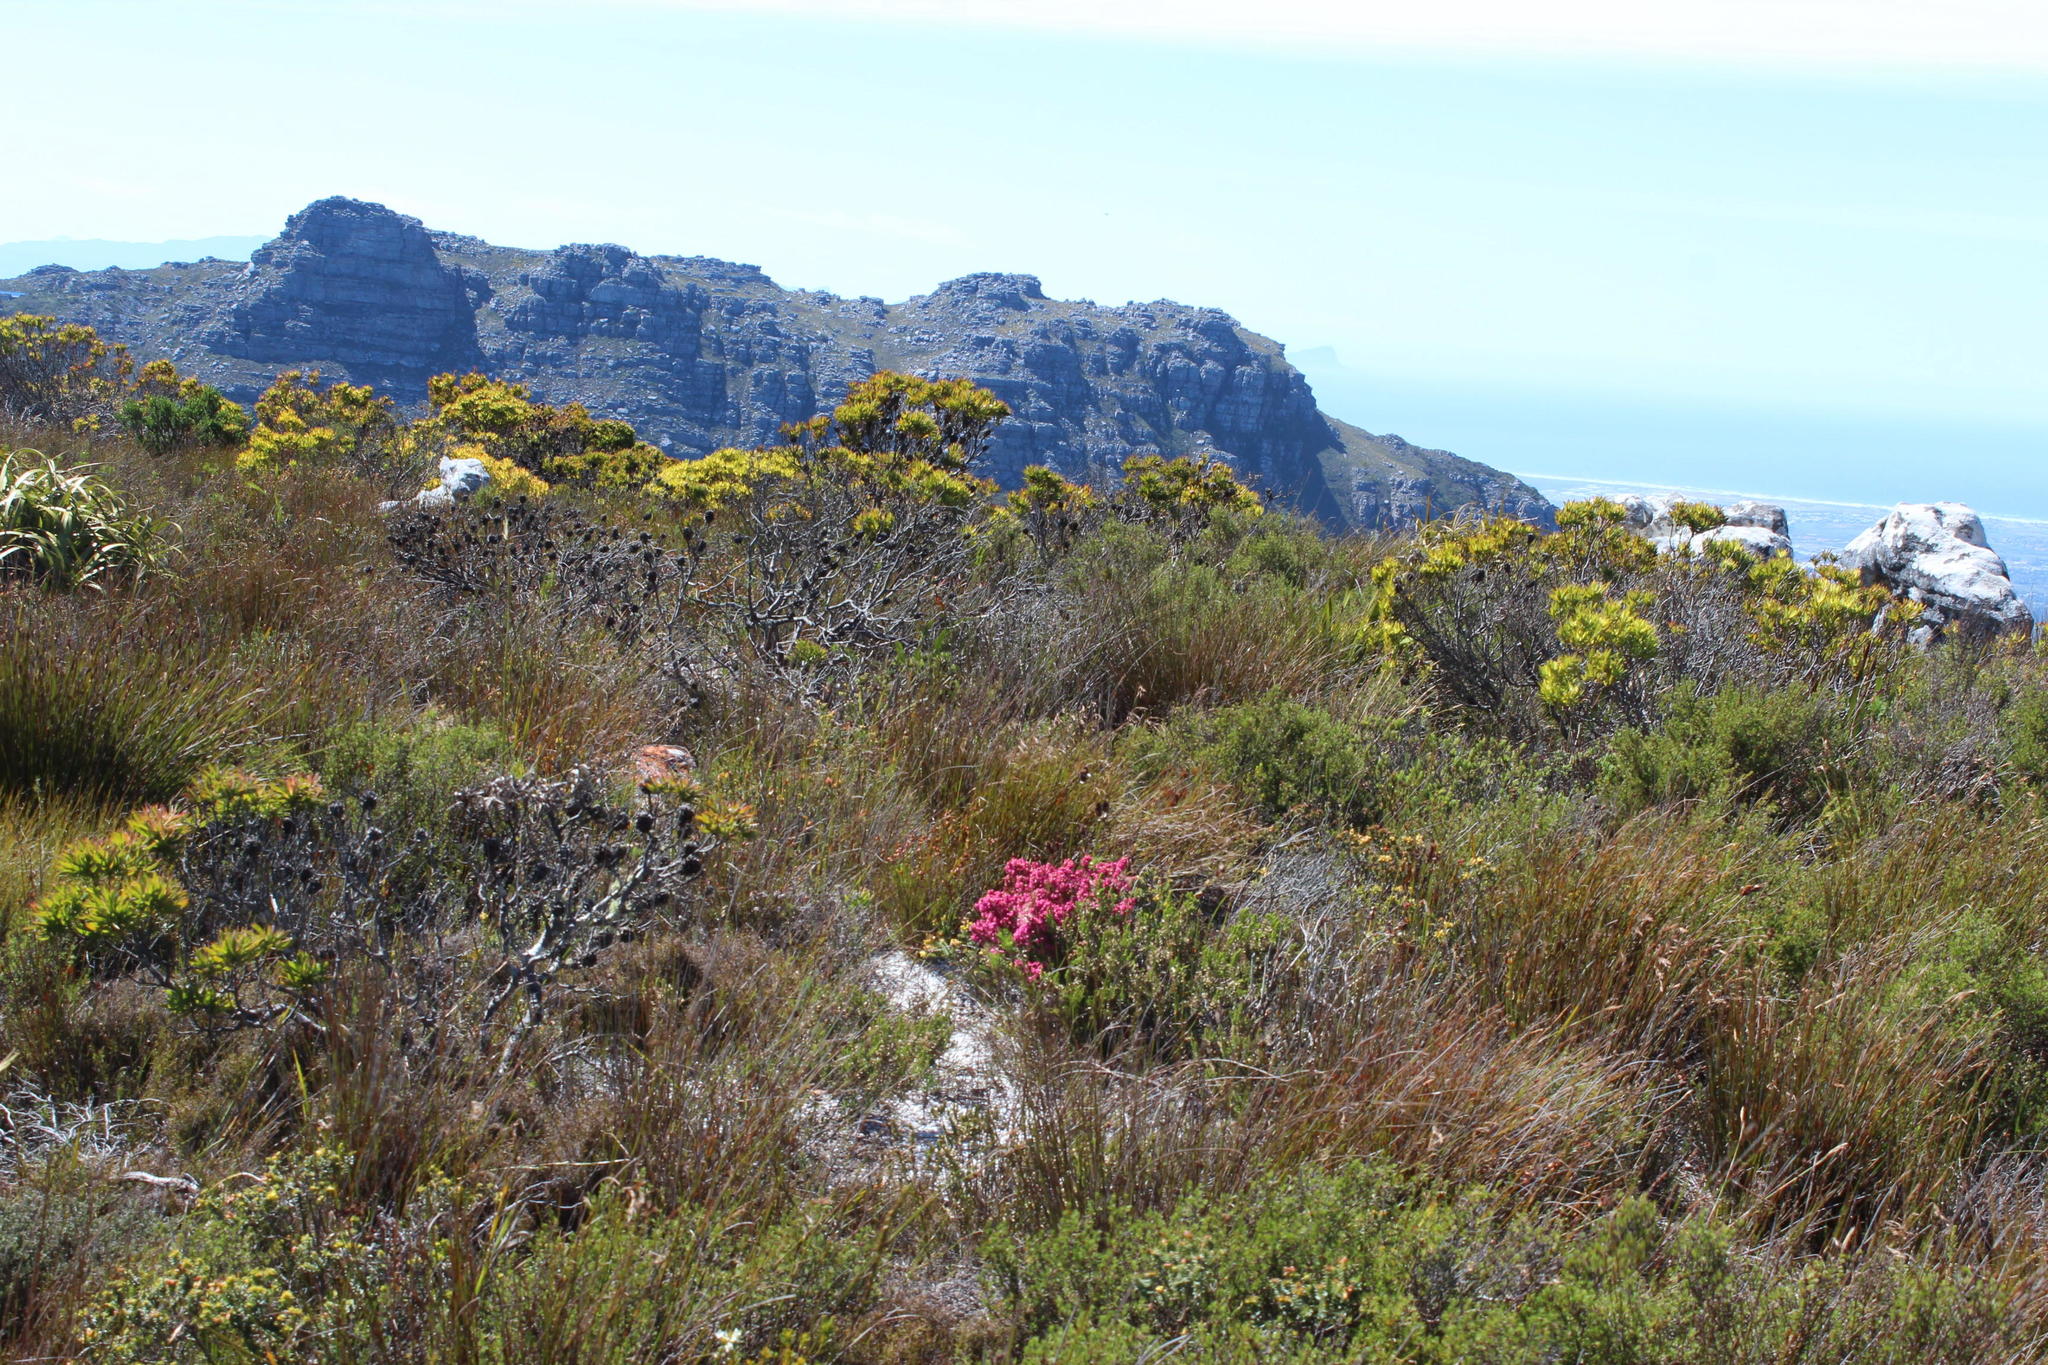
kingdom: Plantae
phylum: Tracheophyta
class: Magnoliopsida
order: Ericales
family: Ericaceae
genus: Erica
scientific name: Erica corifolia
